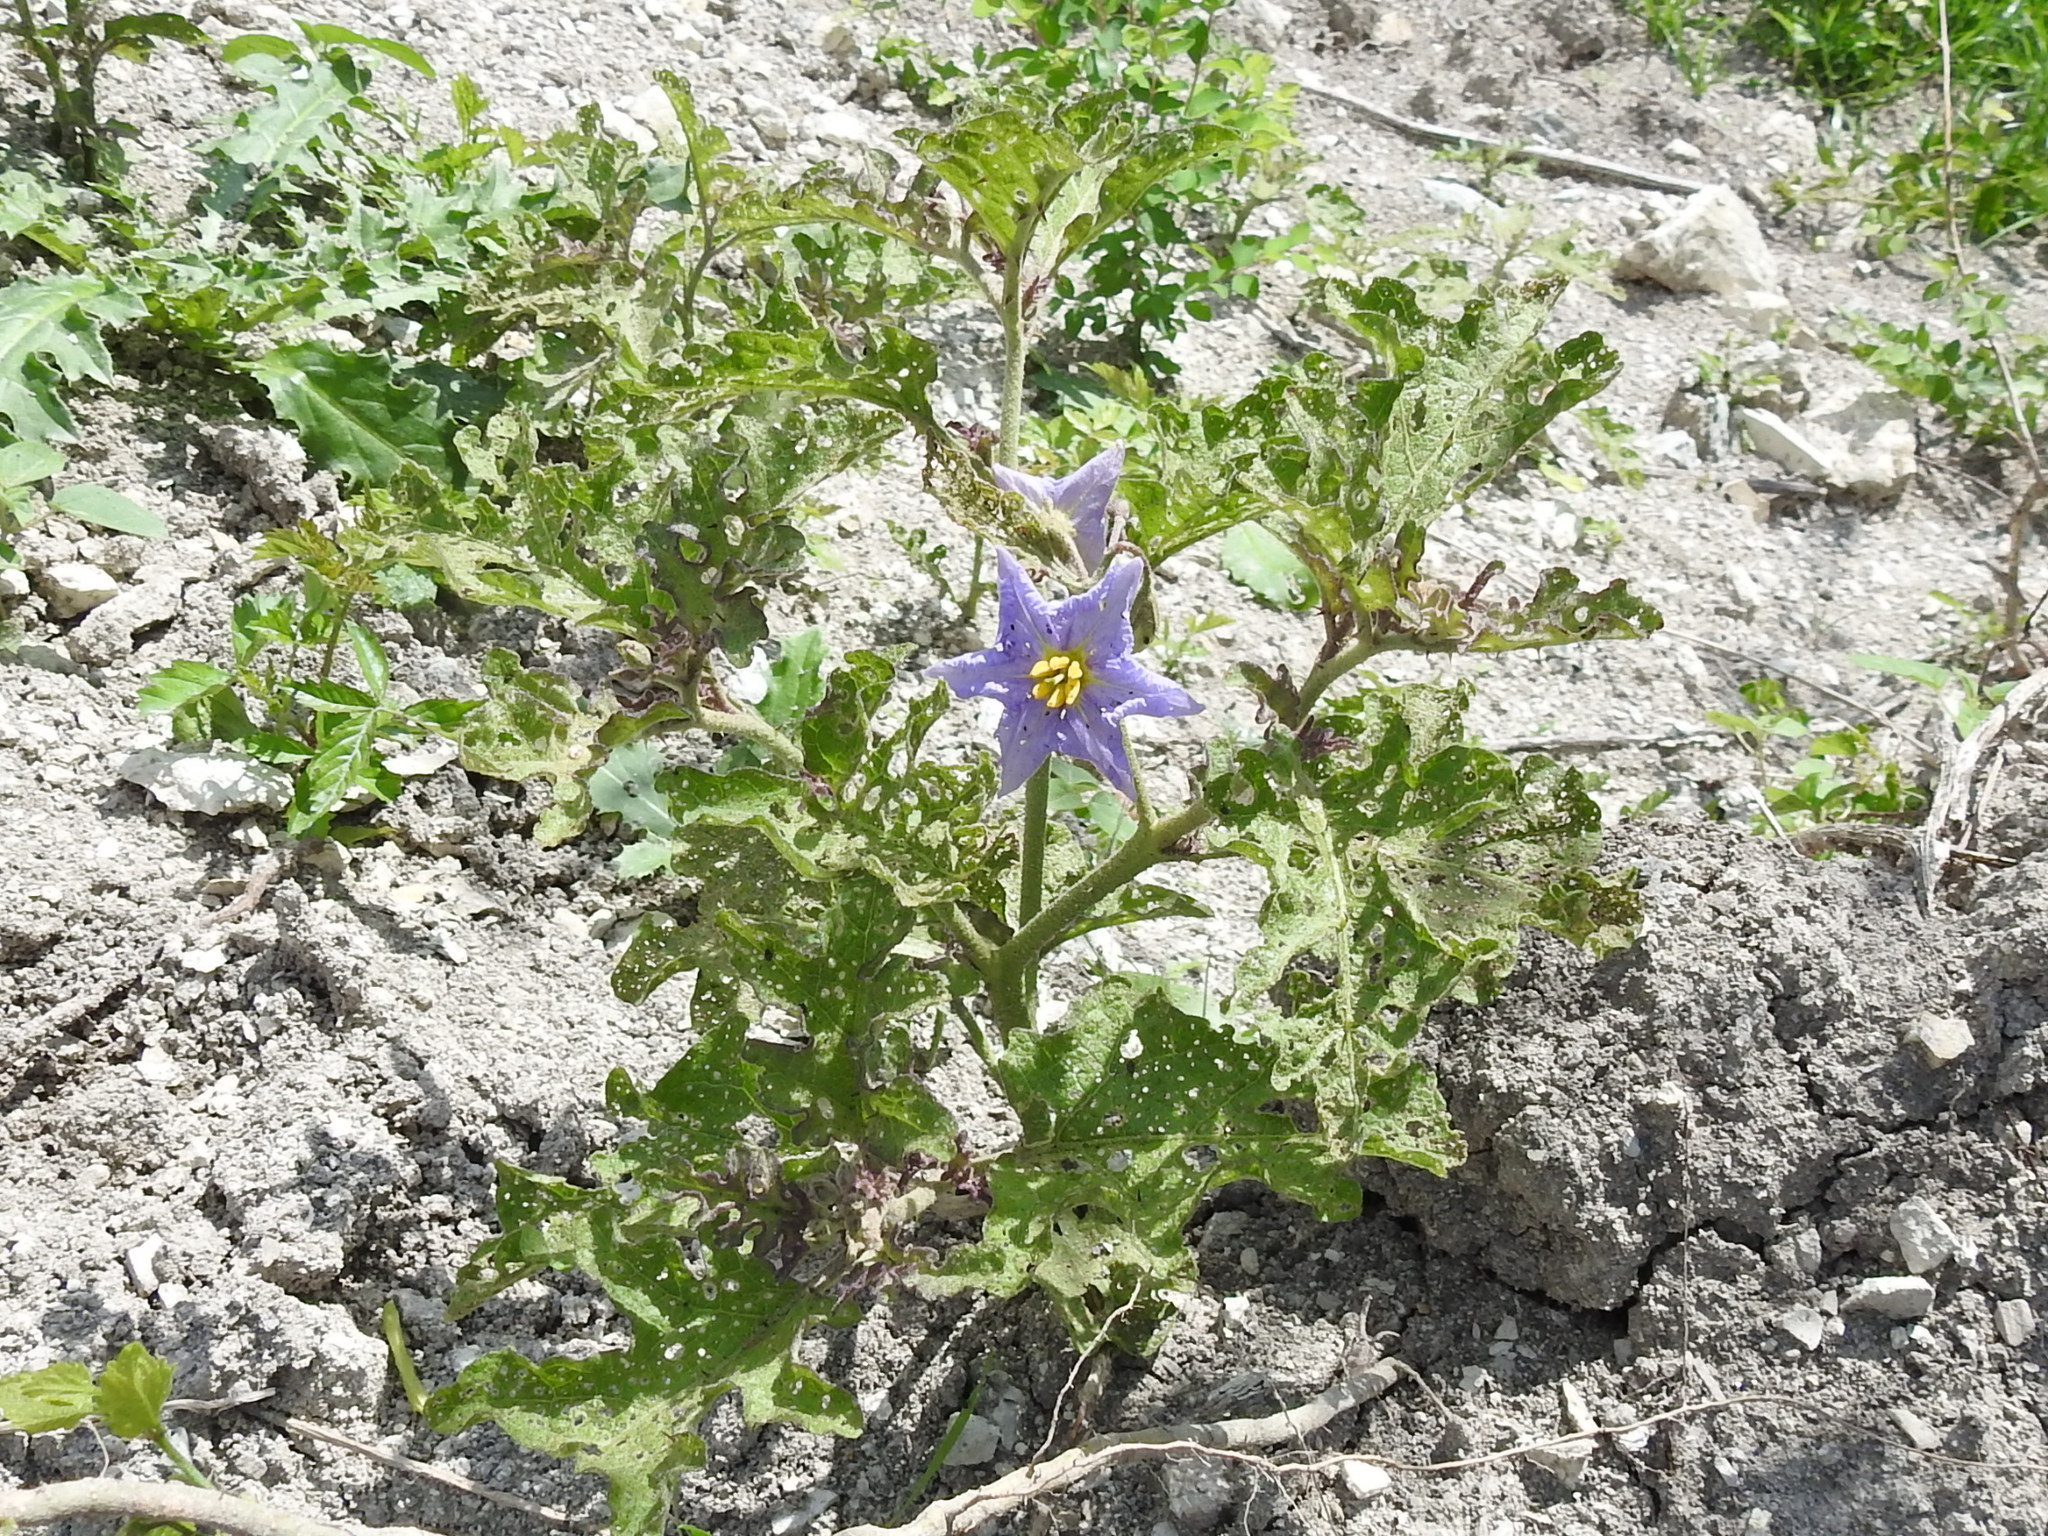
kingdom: Plantae
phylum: Tracheophyta
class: Magnoliopsida
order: Solanales
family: Solanaceae
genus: Solanum
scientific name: Solanum dimidiatum
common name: Carolina horse-nettle
